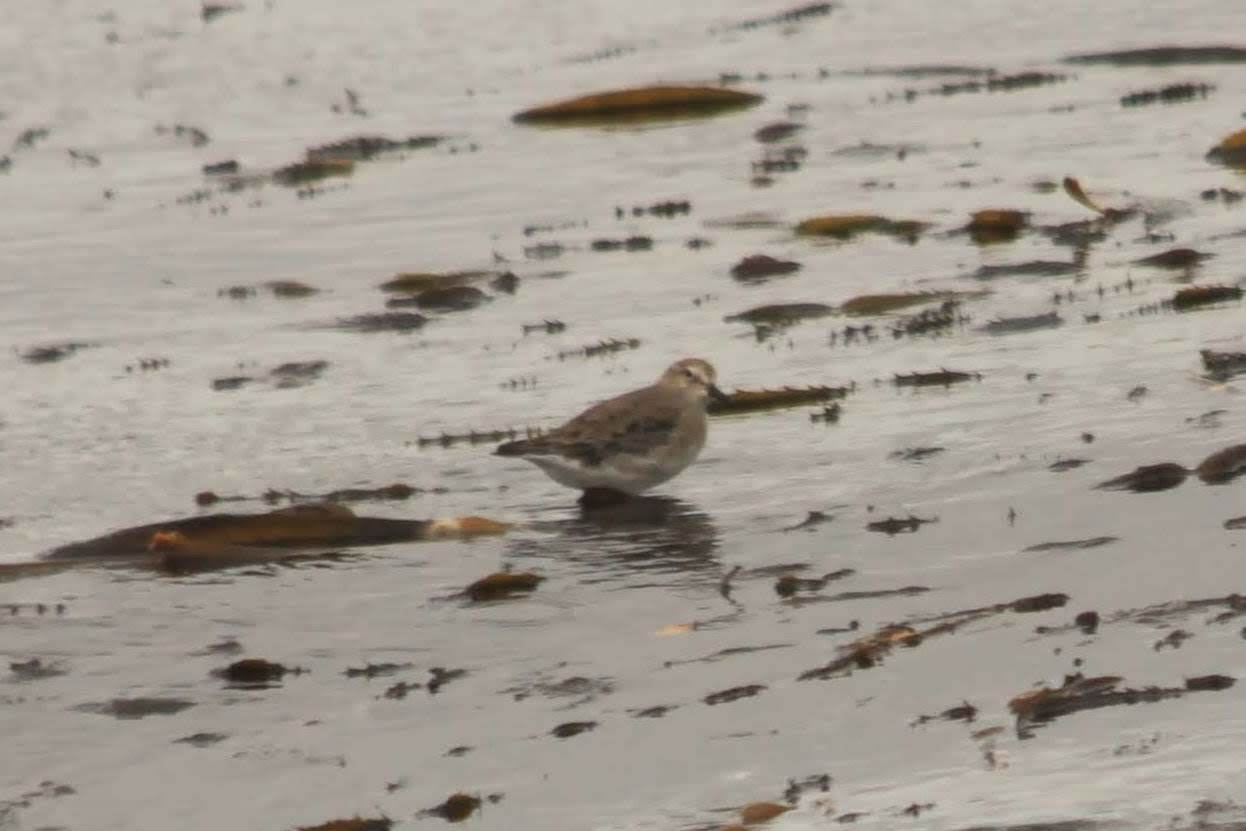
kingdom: Animalia
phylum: Chordata
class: Aves
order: Charadriiformes
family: Scolopacidae
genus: Calidris
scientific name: Calidris fuscicollis
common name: White-rumped sandpiper
